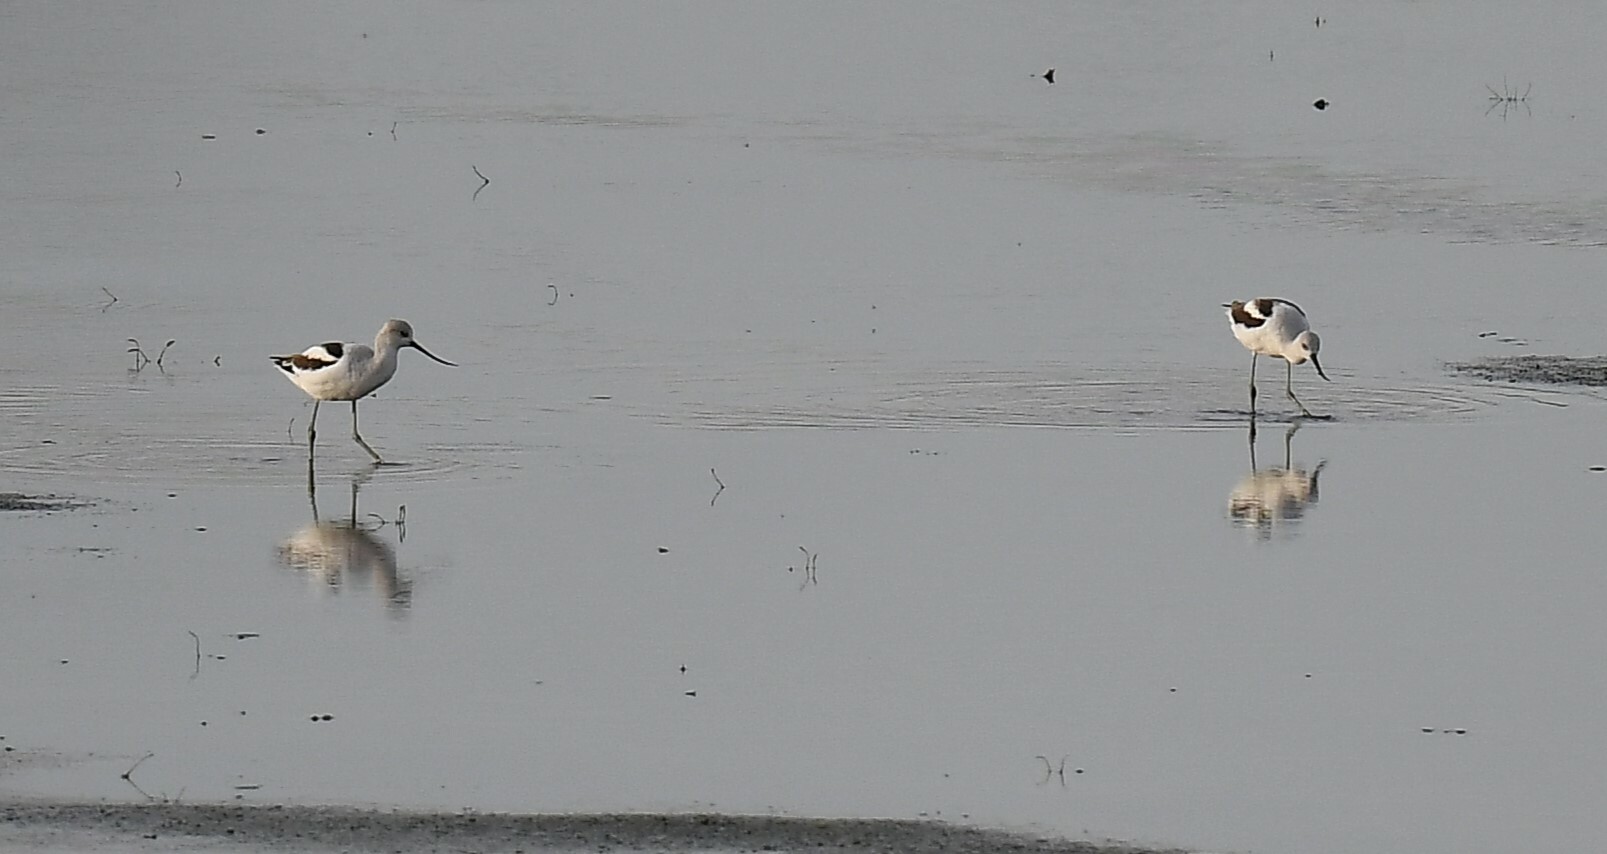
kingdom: Animalia
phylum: Chordata
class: Aves
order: Charadriiformes
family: Recurvirostridae
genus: Recurvirostra
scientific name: Recurvirostra americana
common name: American avocet
